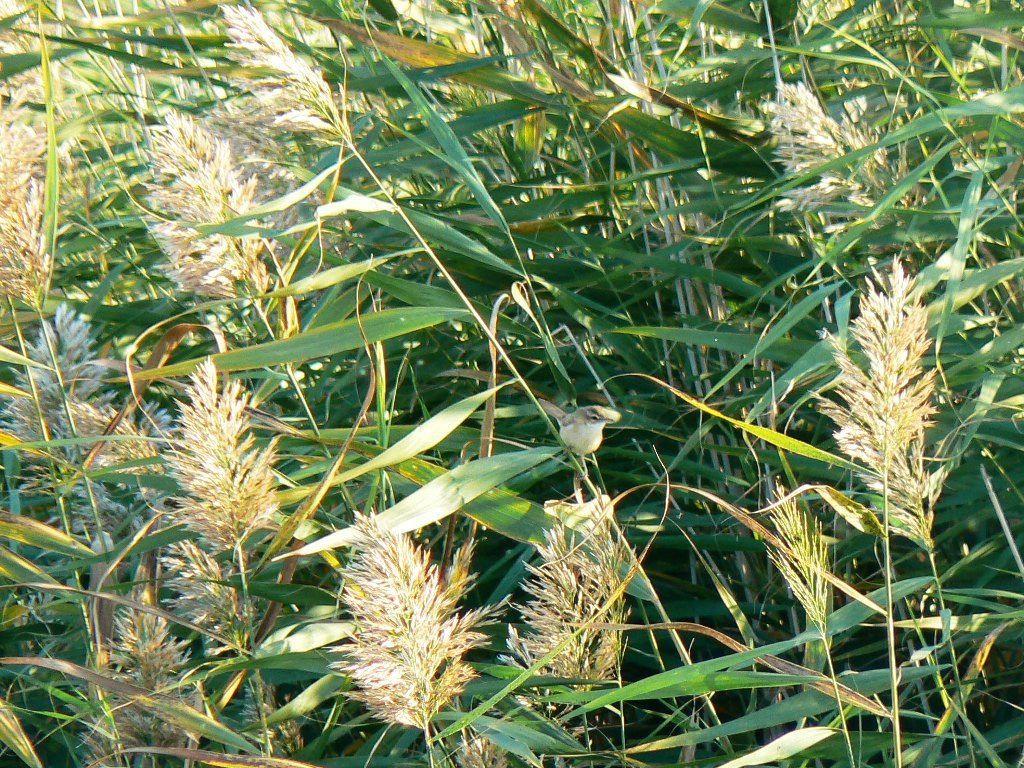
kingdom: Animalia
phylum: Chordata
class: Aves
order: Passeriformes
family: Acrocephalidae
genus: Acrocephalus
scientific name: Acrocephalus agricola
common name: Paddyfield warbler
